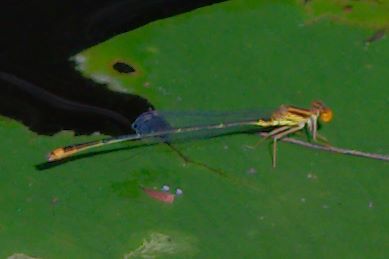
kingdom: Animalia
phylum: Arthropoda
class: Insecta
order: Odonata
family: Coenagrionidae
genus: Enallagma
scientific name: Enallagma pollutum
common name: Florida bluet
